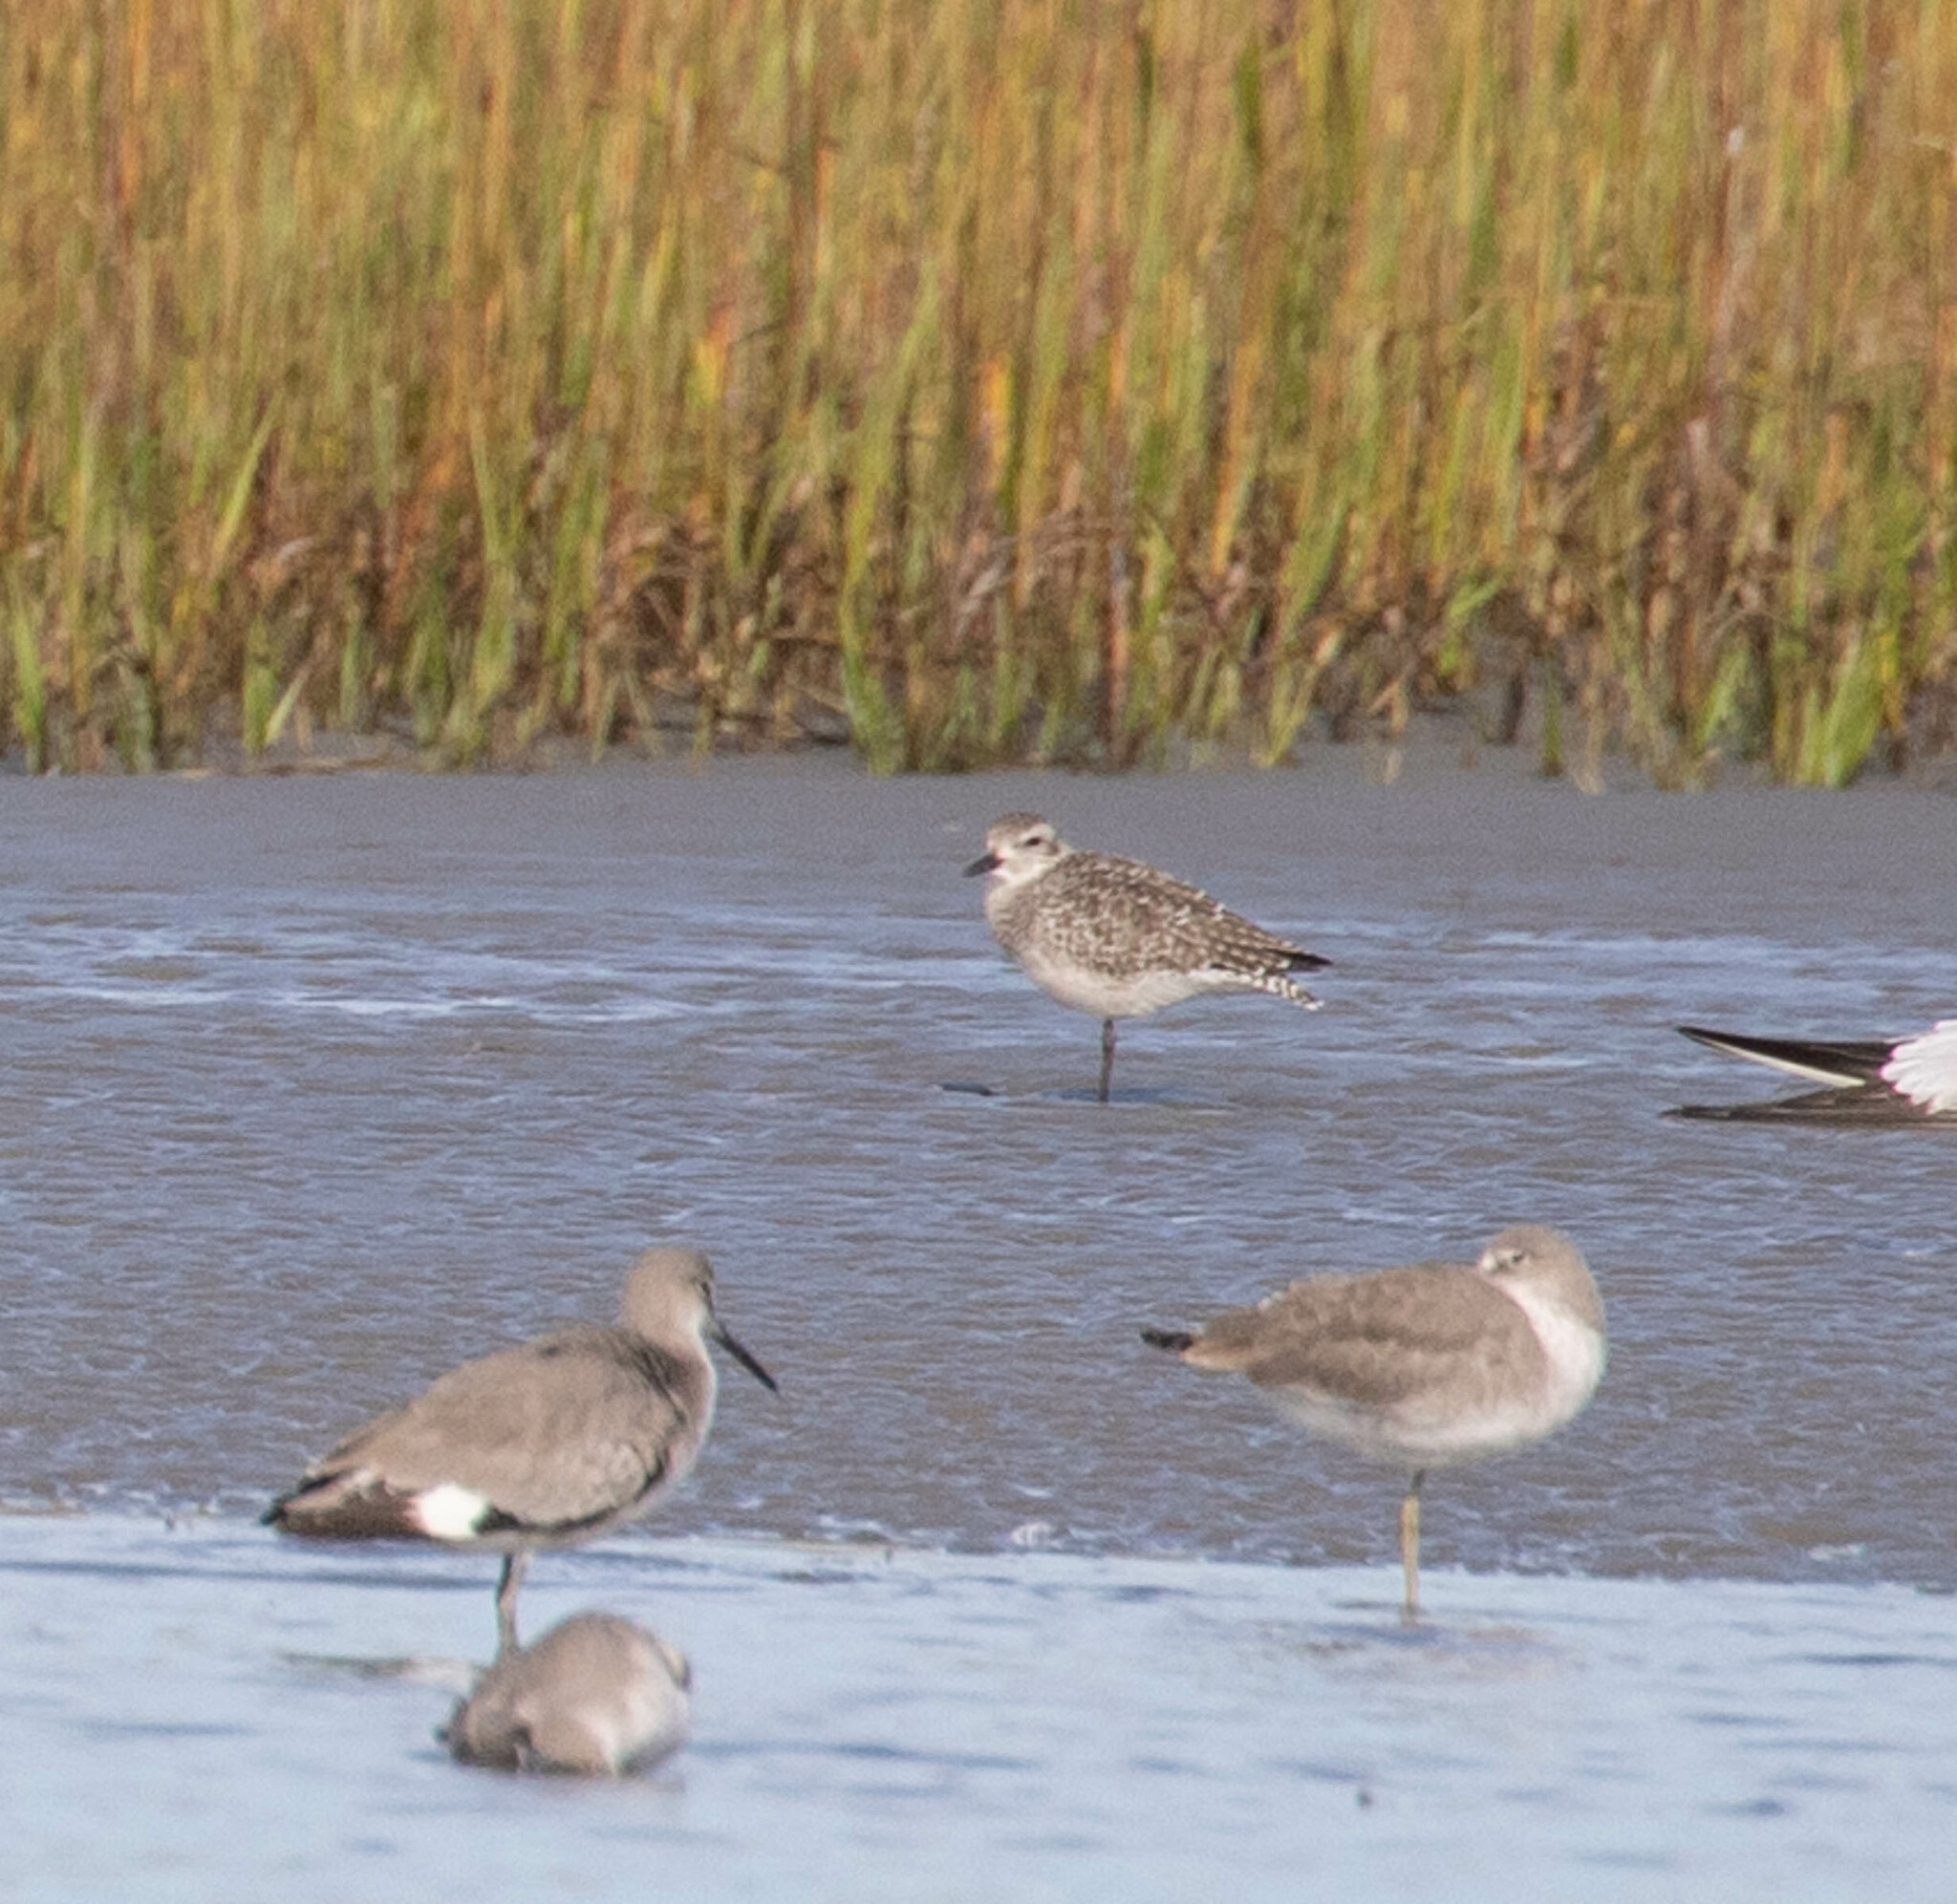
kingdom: Animalia
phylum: Chordata
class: Aves
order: Charadriiformes
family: Charadriidae
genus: Pluvialis
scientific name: Pluvialis squatarola
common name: Grey plover
